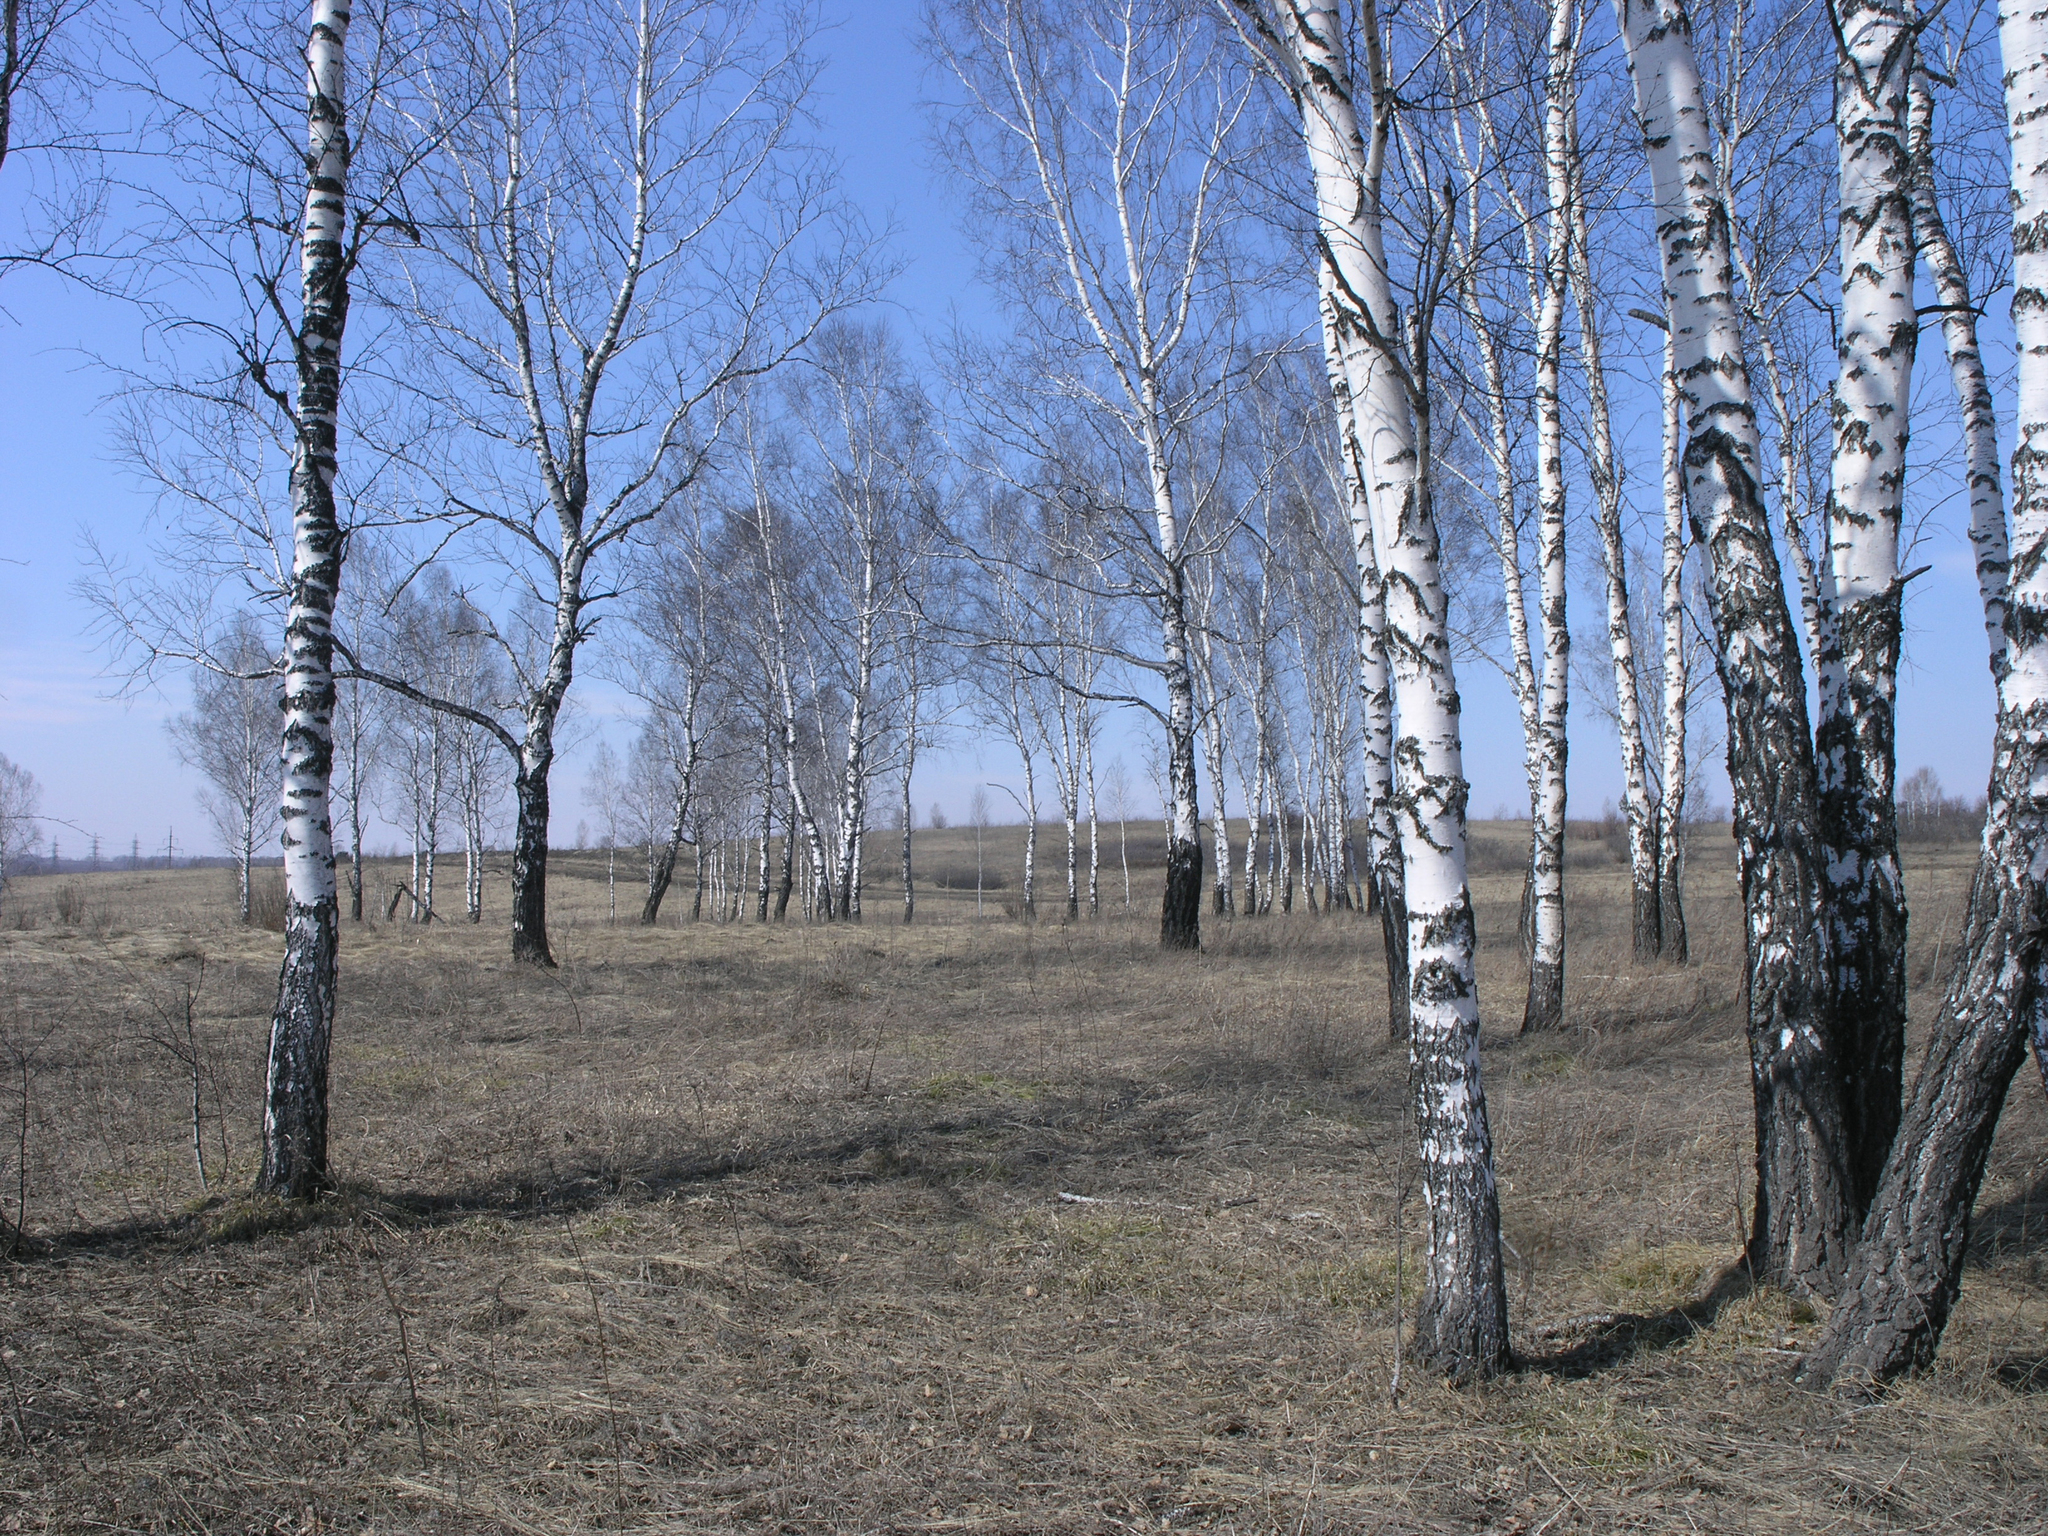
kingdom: Plantae
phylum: Tracheophyta
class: Magnoliopsida
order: Fagales
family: Betulaceae
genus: Betula
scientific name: Betula pendula
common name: Silver birch
